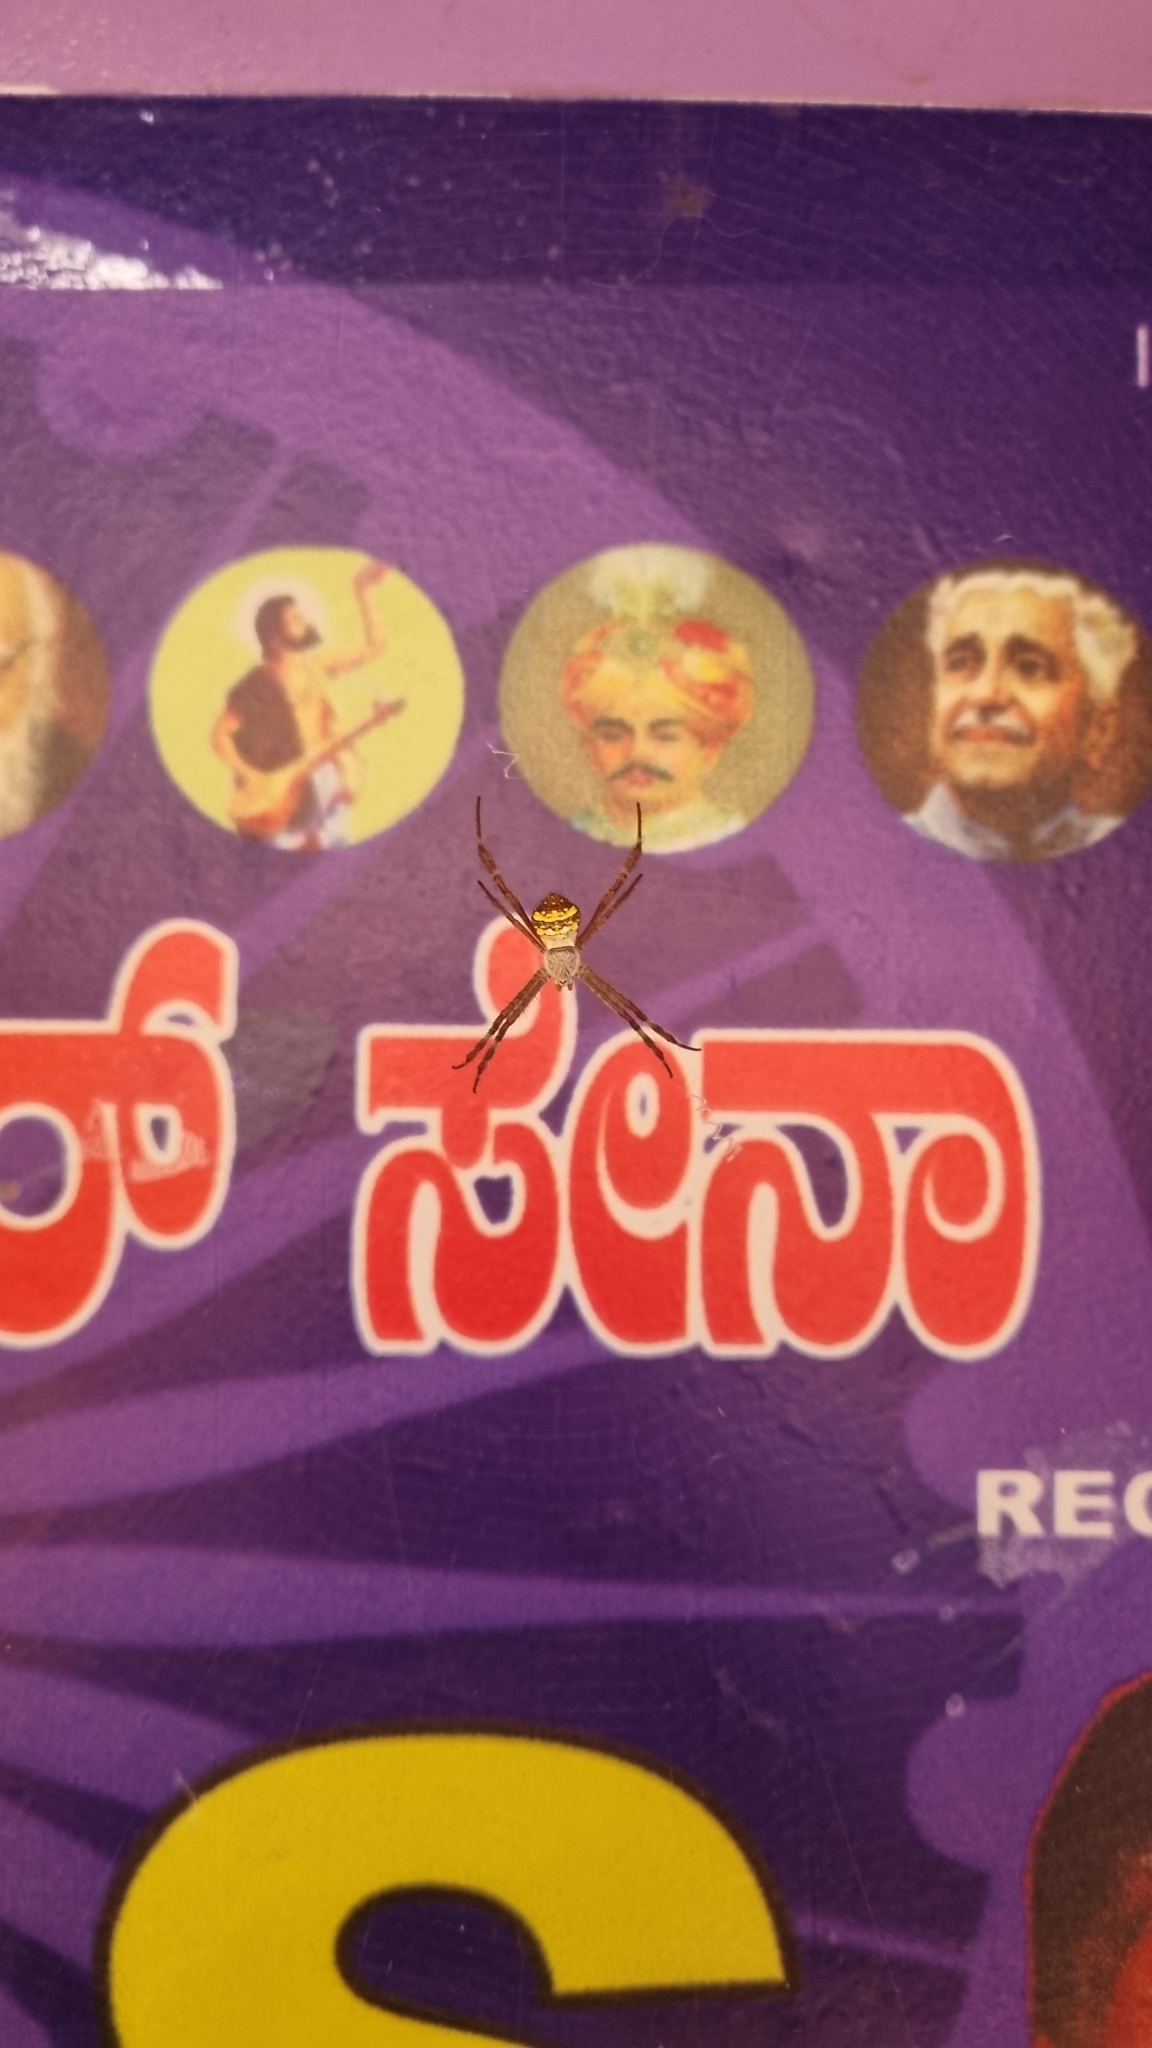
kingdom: Animalia
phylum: Arthropoda
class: Arachnida
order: Araneae
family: Araneidae
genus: Argiope
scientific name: Argiope anasuja
